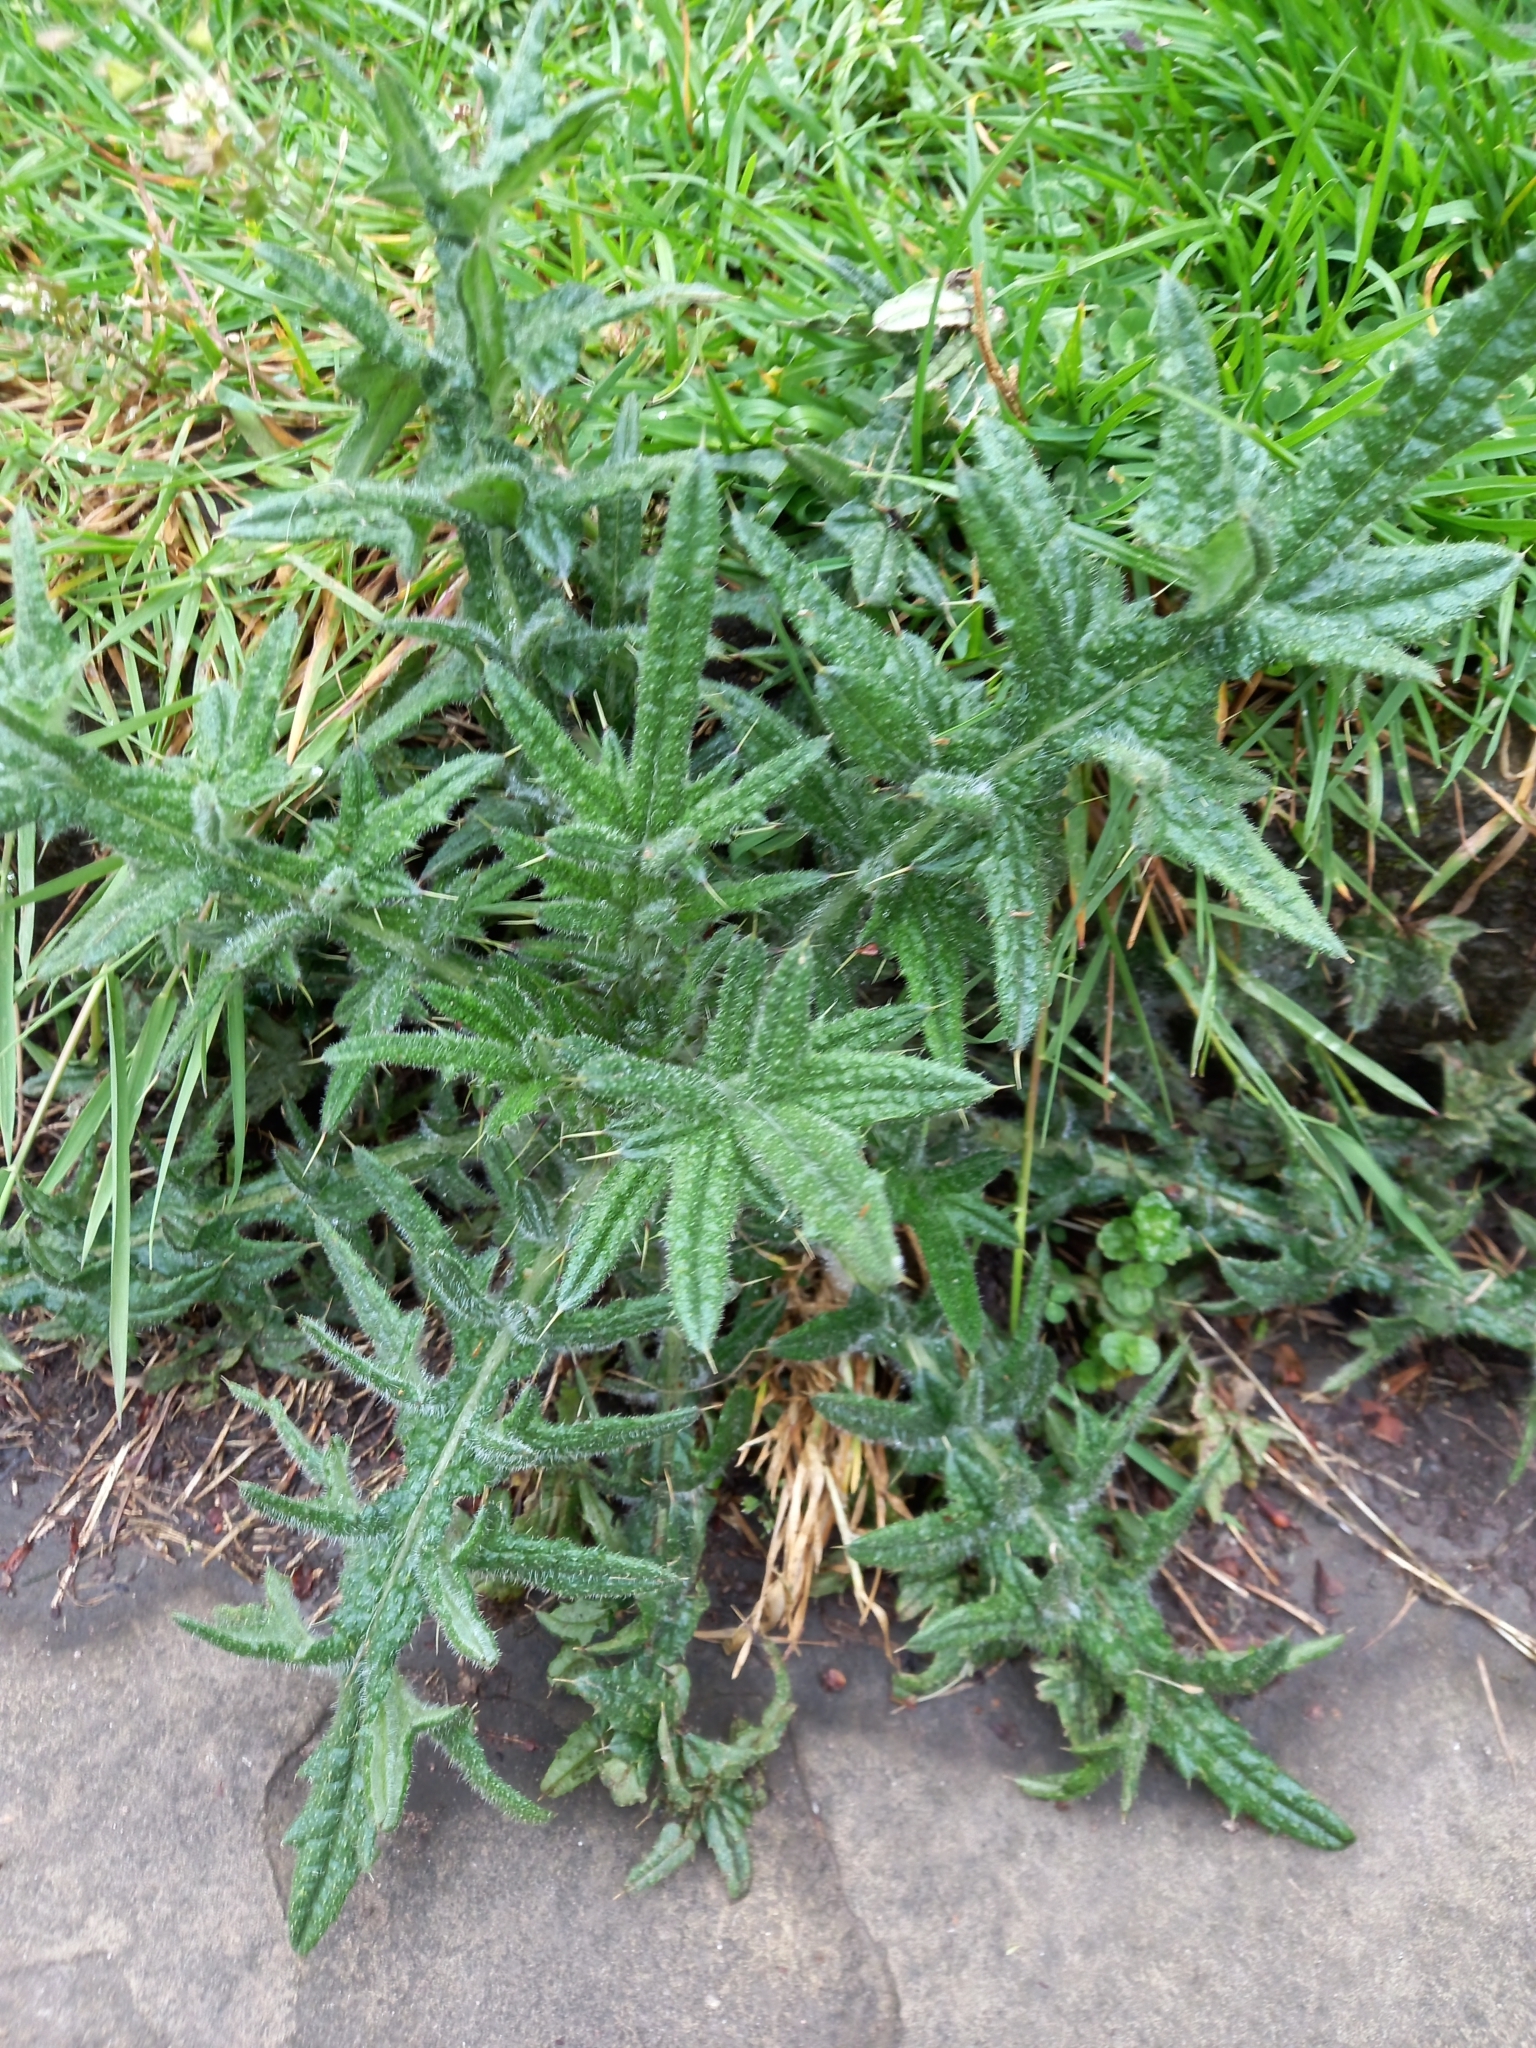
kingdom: Plantae
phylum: Tracheophyta
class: Magnoliopsida
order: Asterales
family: Asteraceae
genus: Cirsium
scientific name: Cirsium vulgare
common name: Bull thistle
